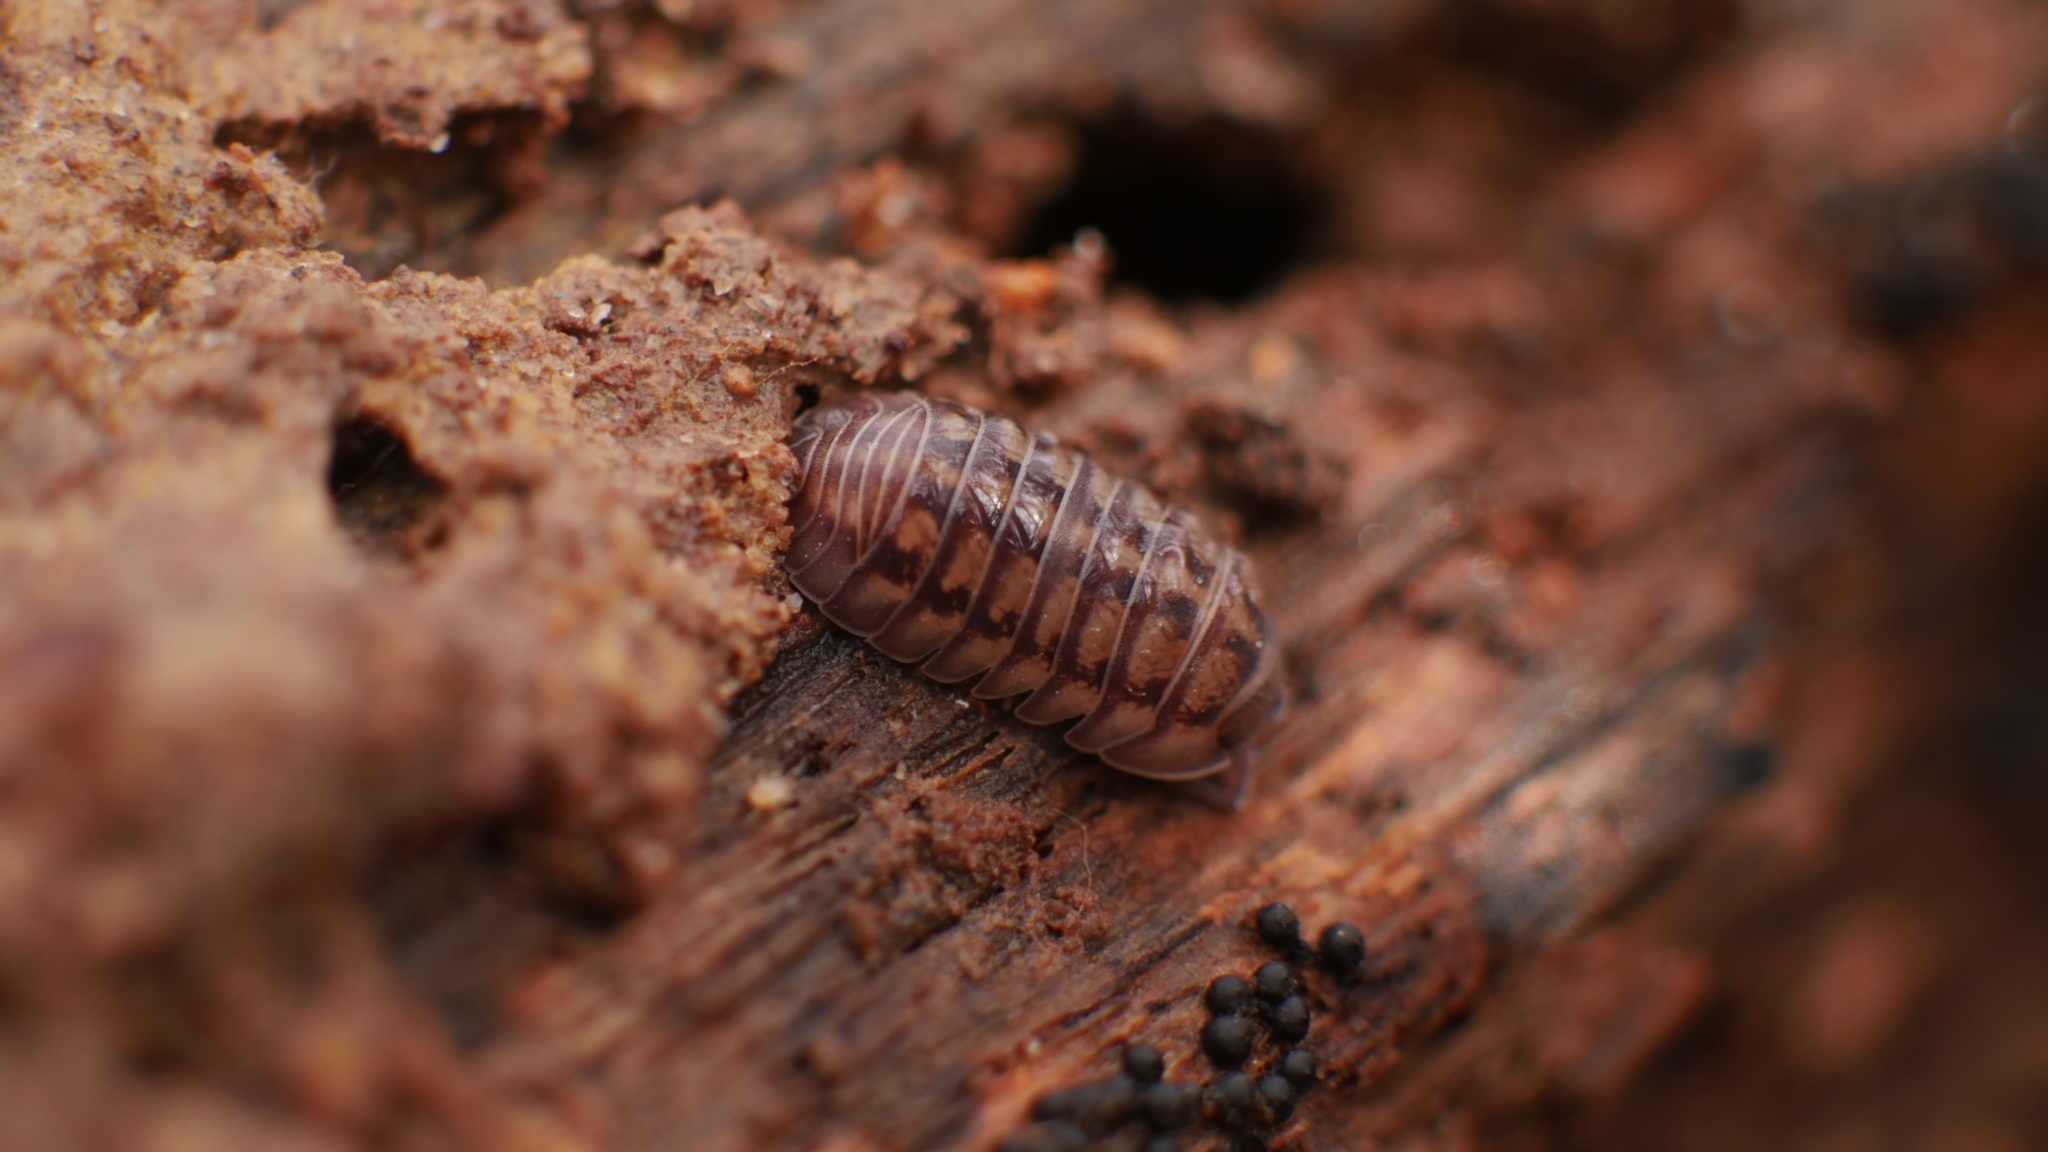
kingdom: Animalia
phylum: Arthropoda
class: Malacostraca
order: Isopoda
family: Armadillidiidae
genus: Armadillidium
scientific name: Armadillidium nasatum
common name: Isopod
